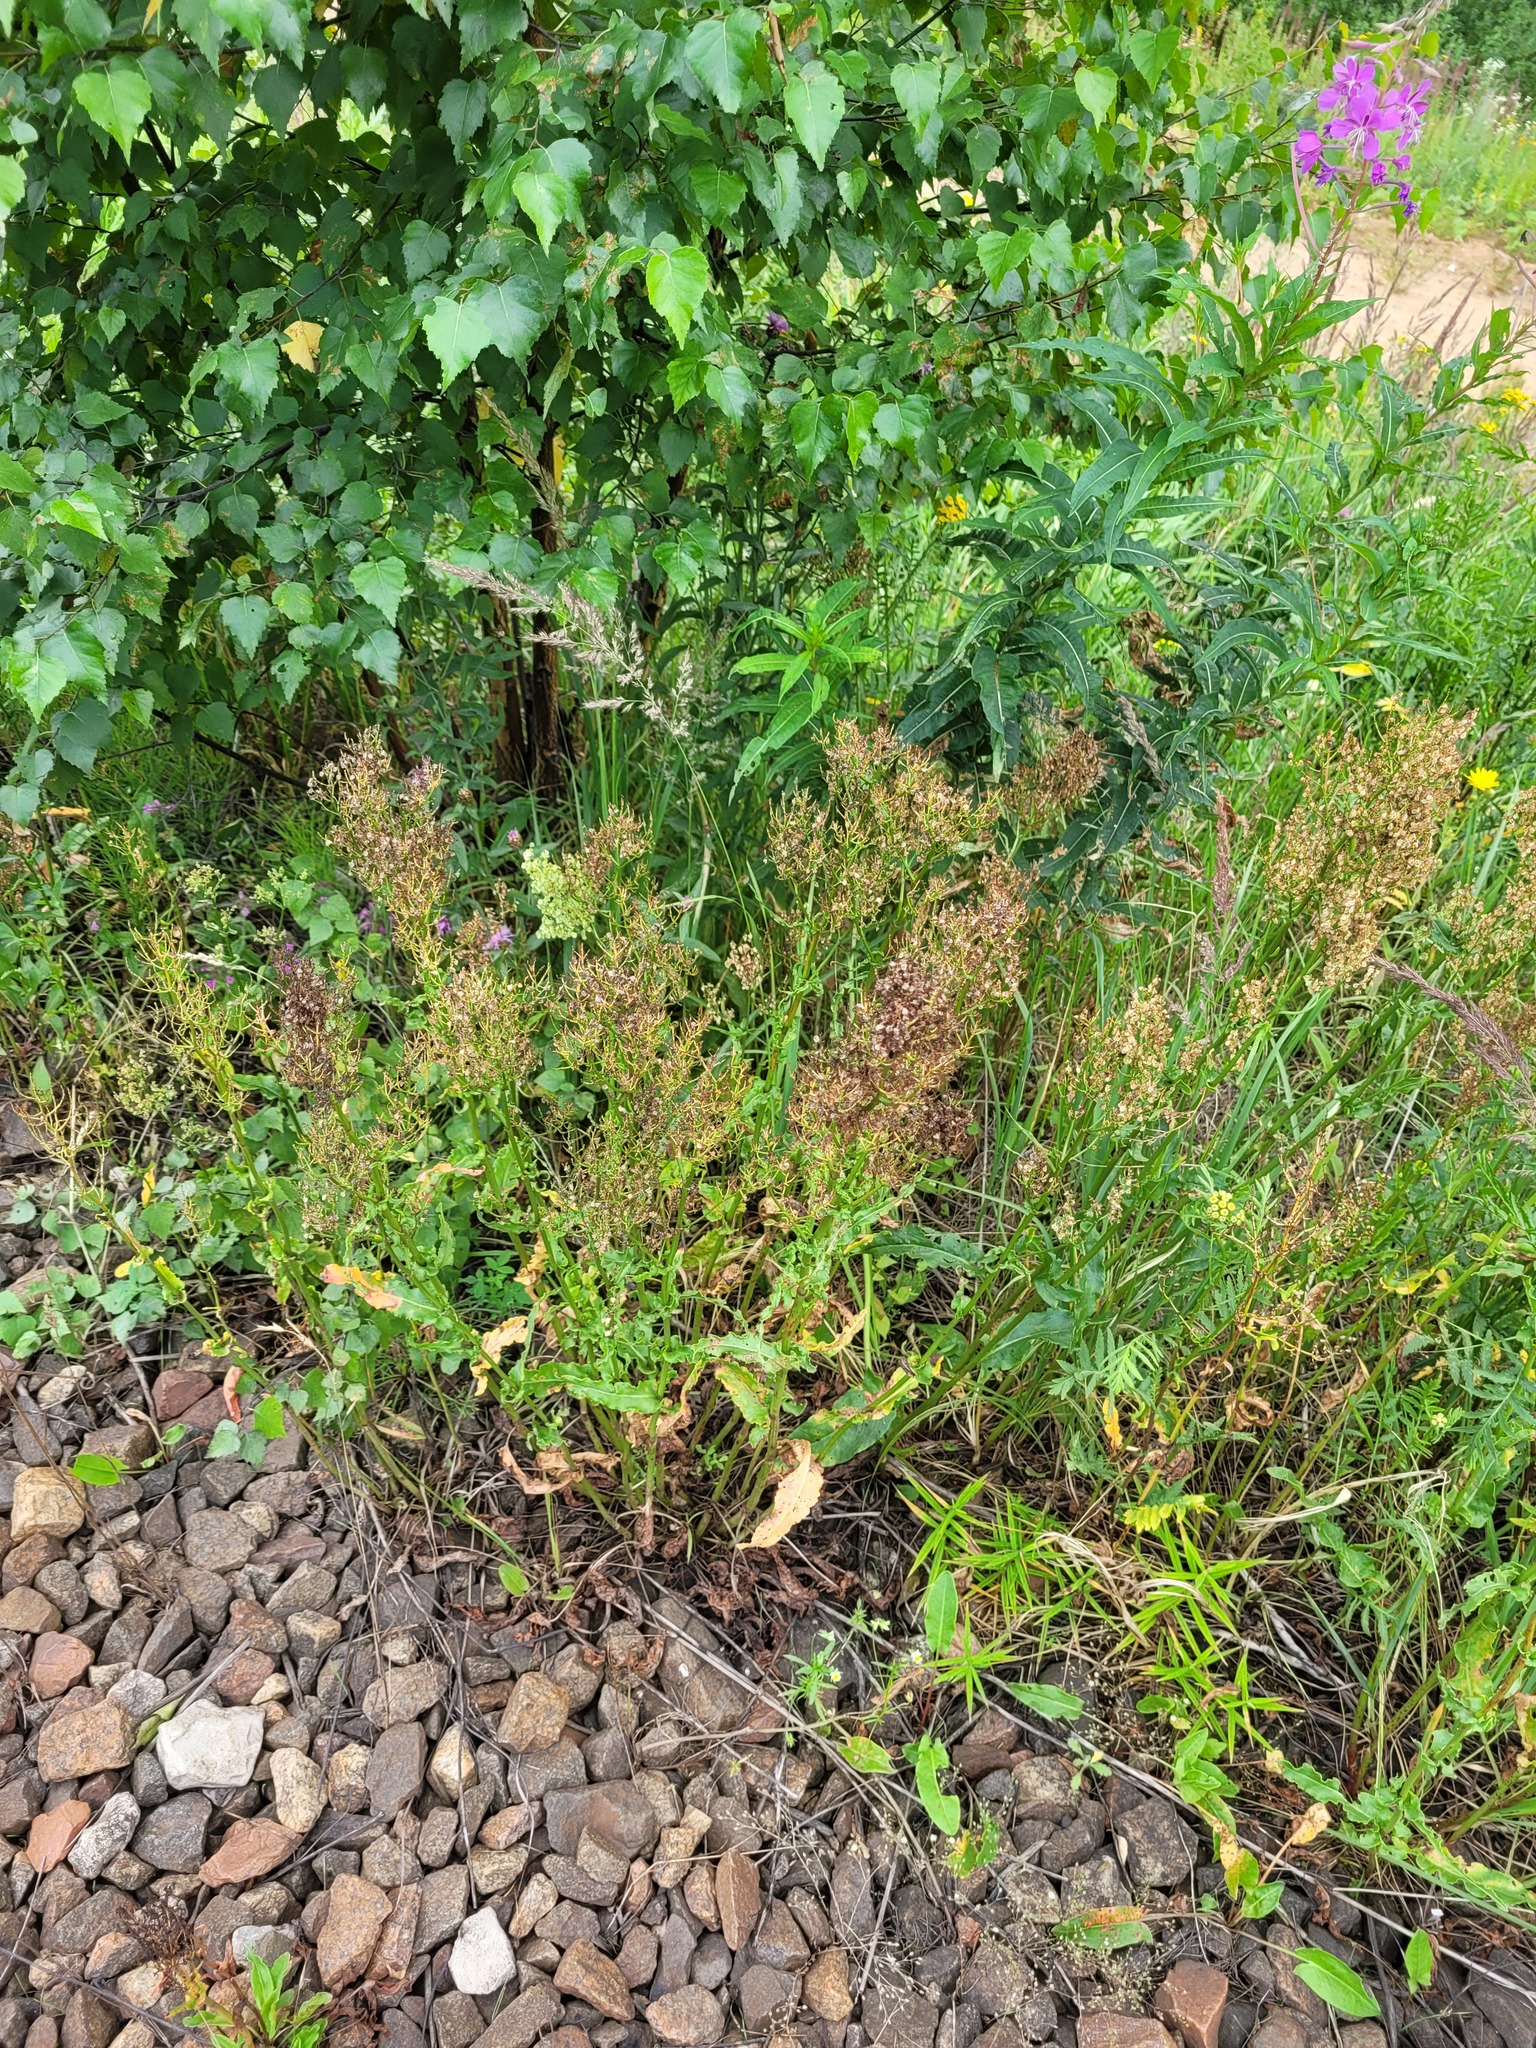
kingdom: Plantae
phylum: Tracheophyta
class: Magnoliopsida
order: Caryophyllales
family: Polygonaceae
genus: Rumex
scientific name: Rumex thyrsiflorus
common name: Garden sorrel
